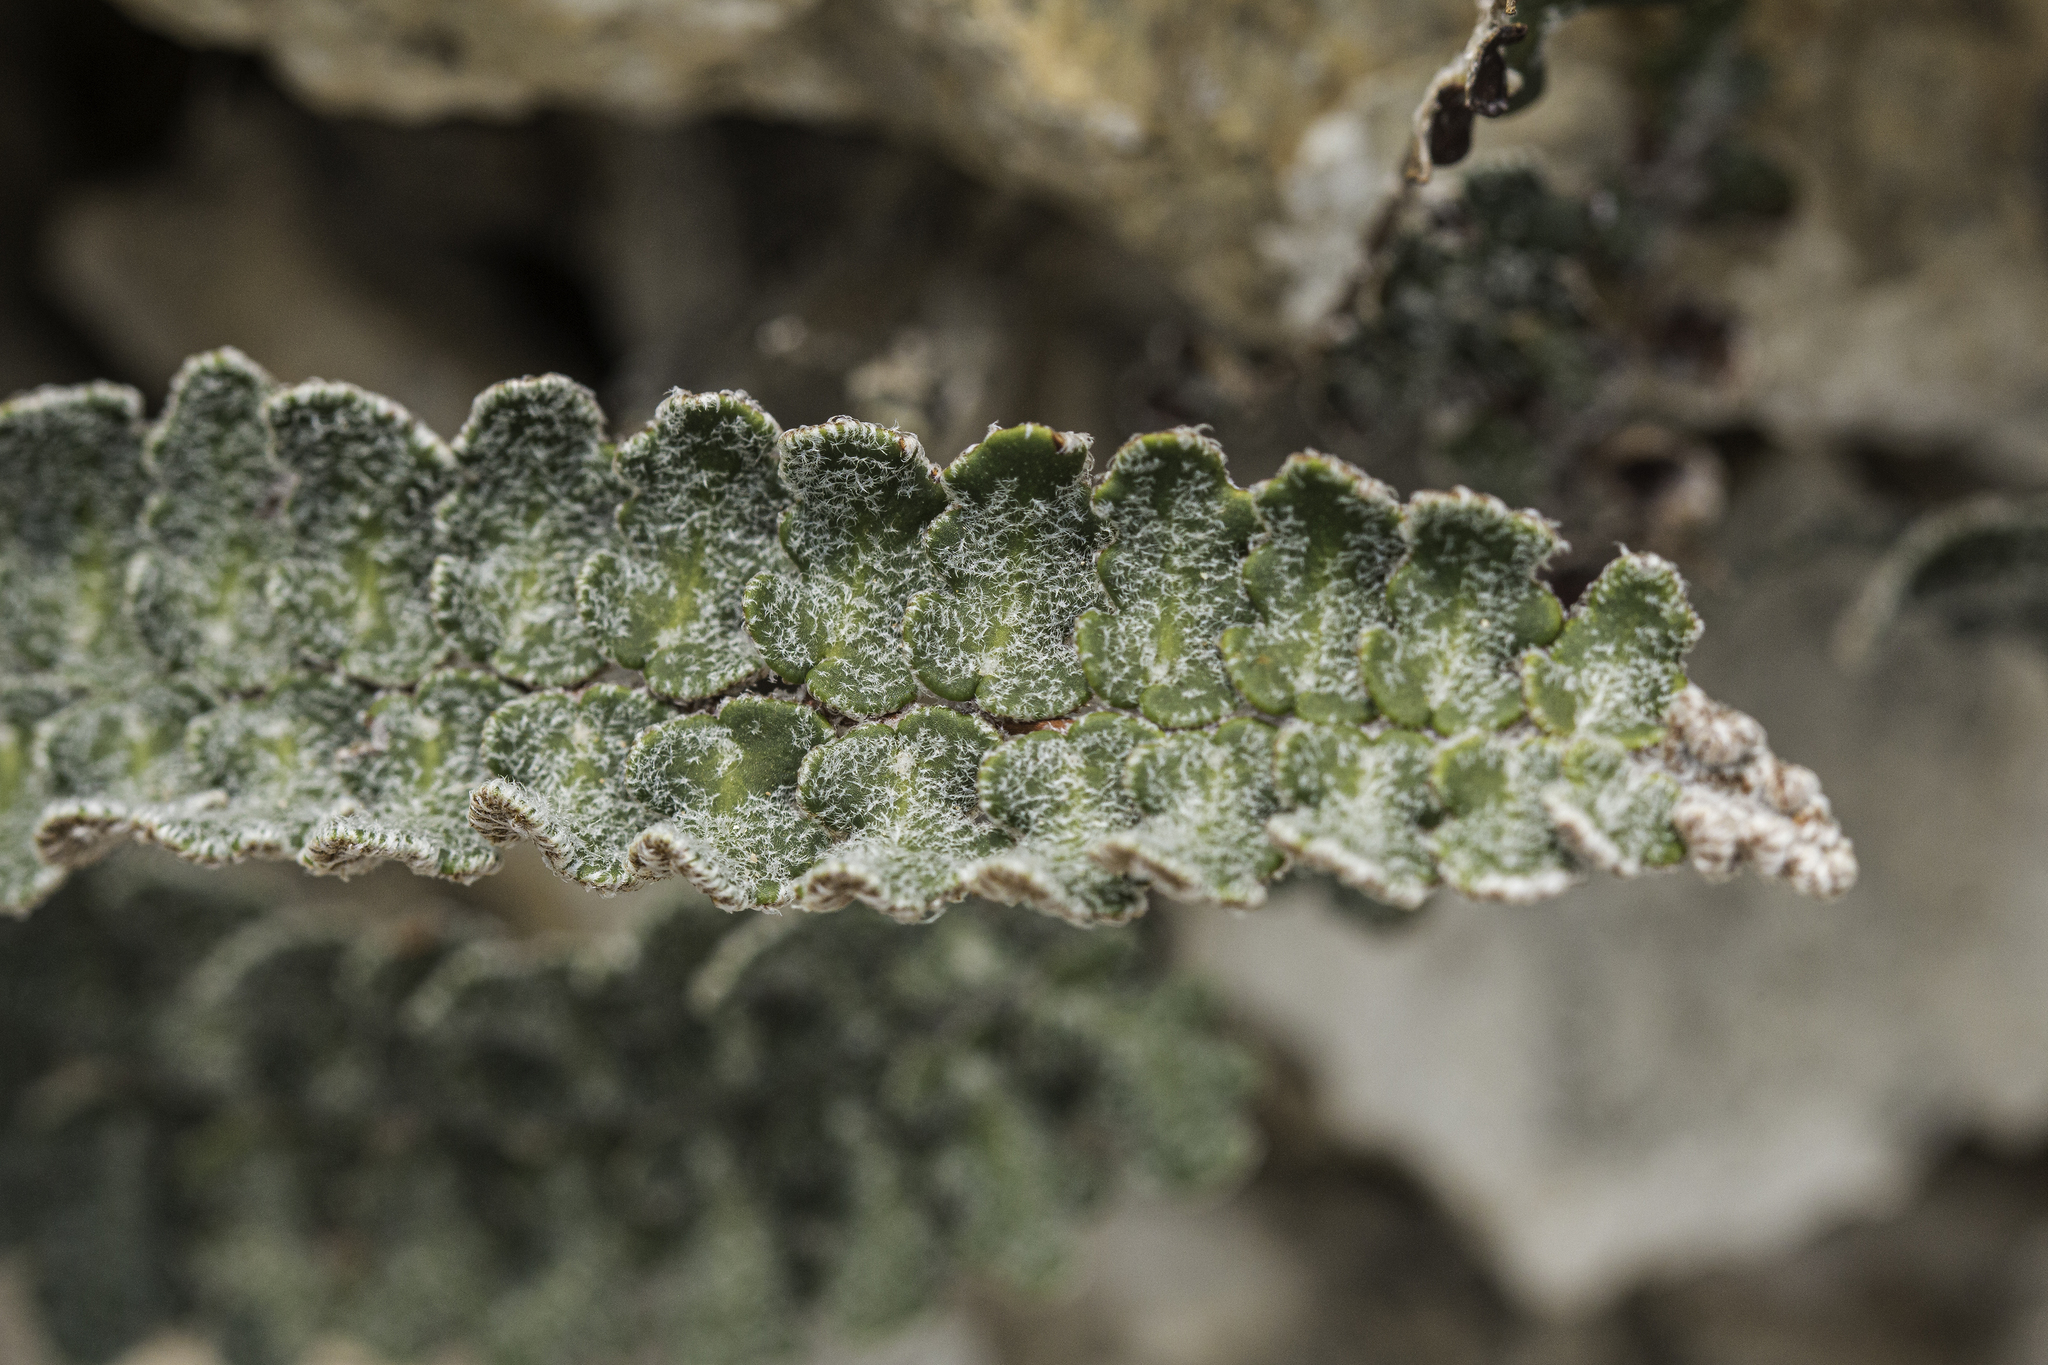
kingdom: Plantae
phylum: Tracheophyta
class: Polypodiopsida
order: Polypodiales
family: Pteridaceae
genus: Astrolepis
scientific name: Astrolepis integerrima
